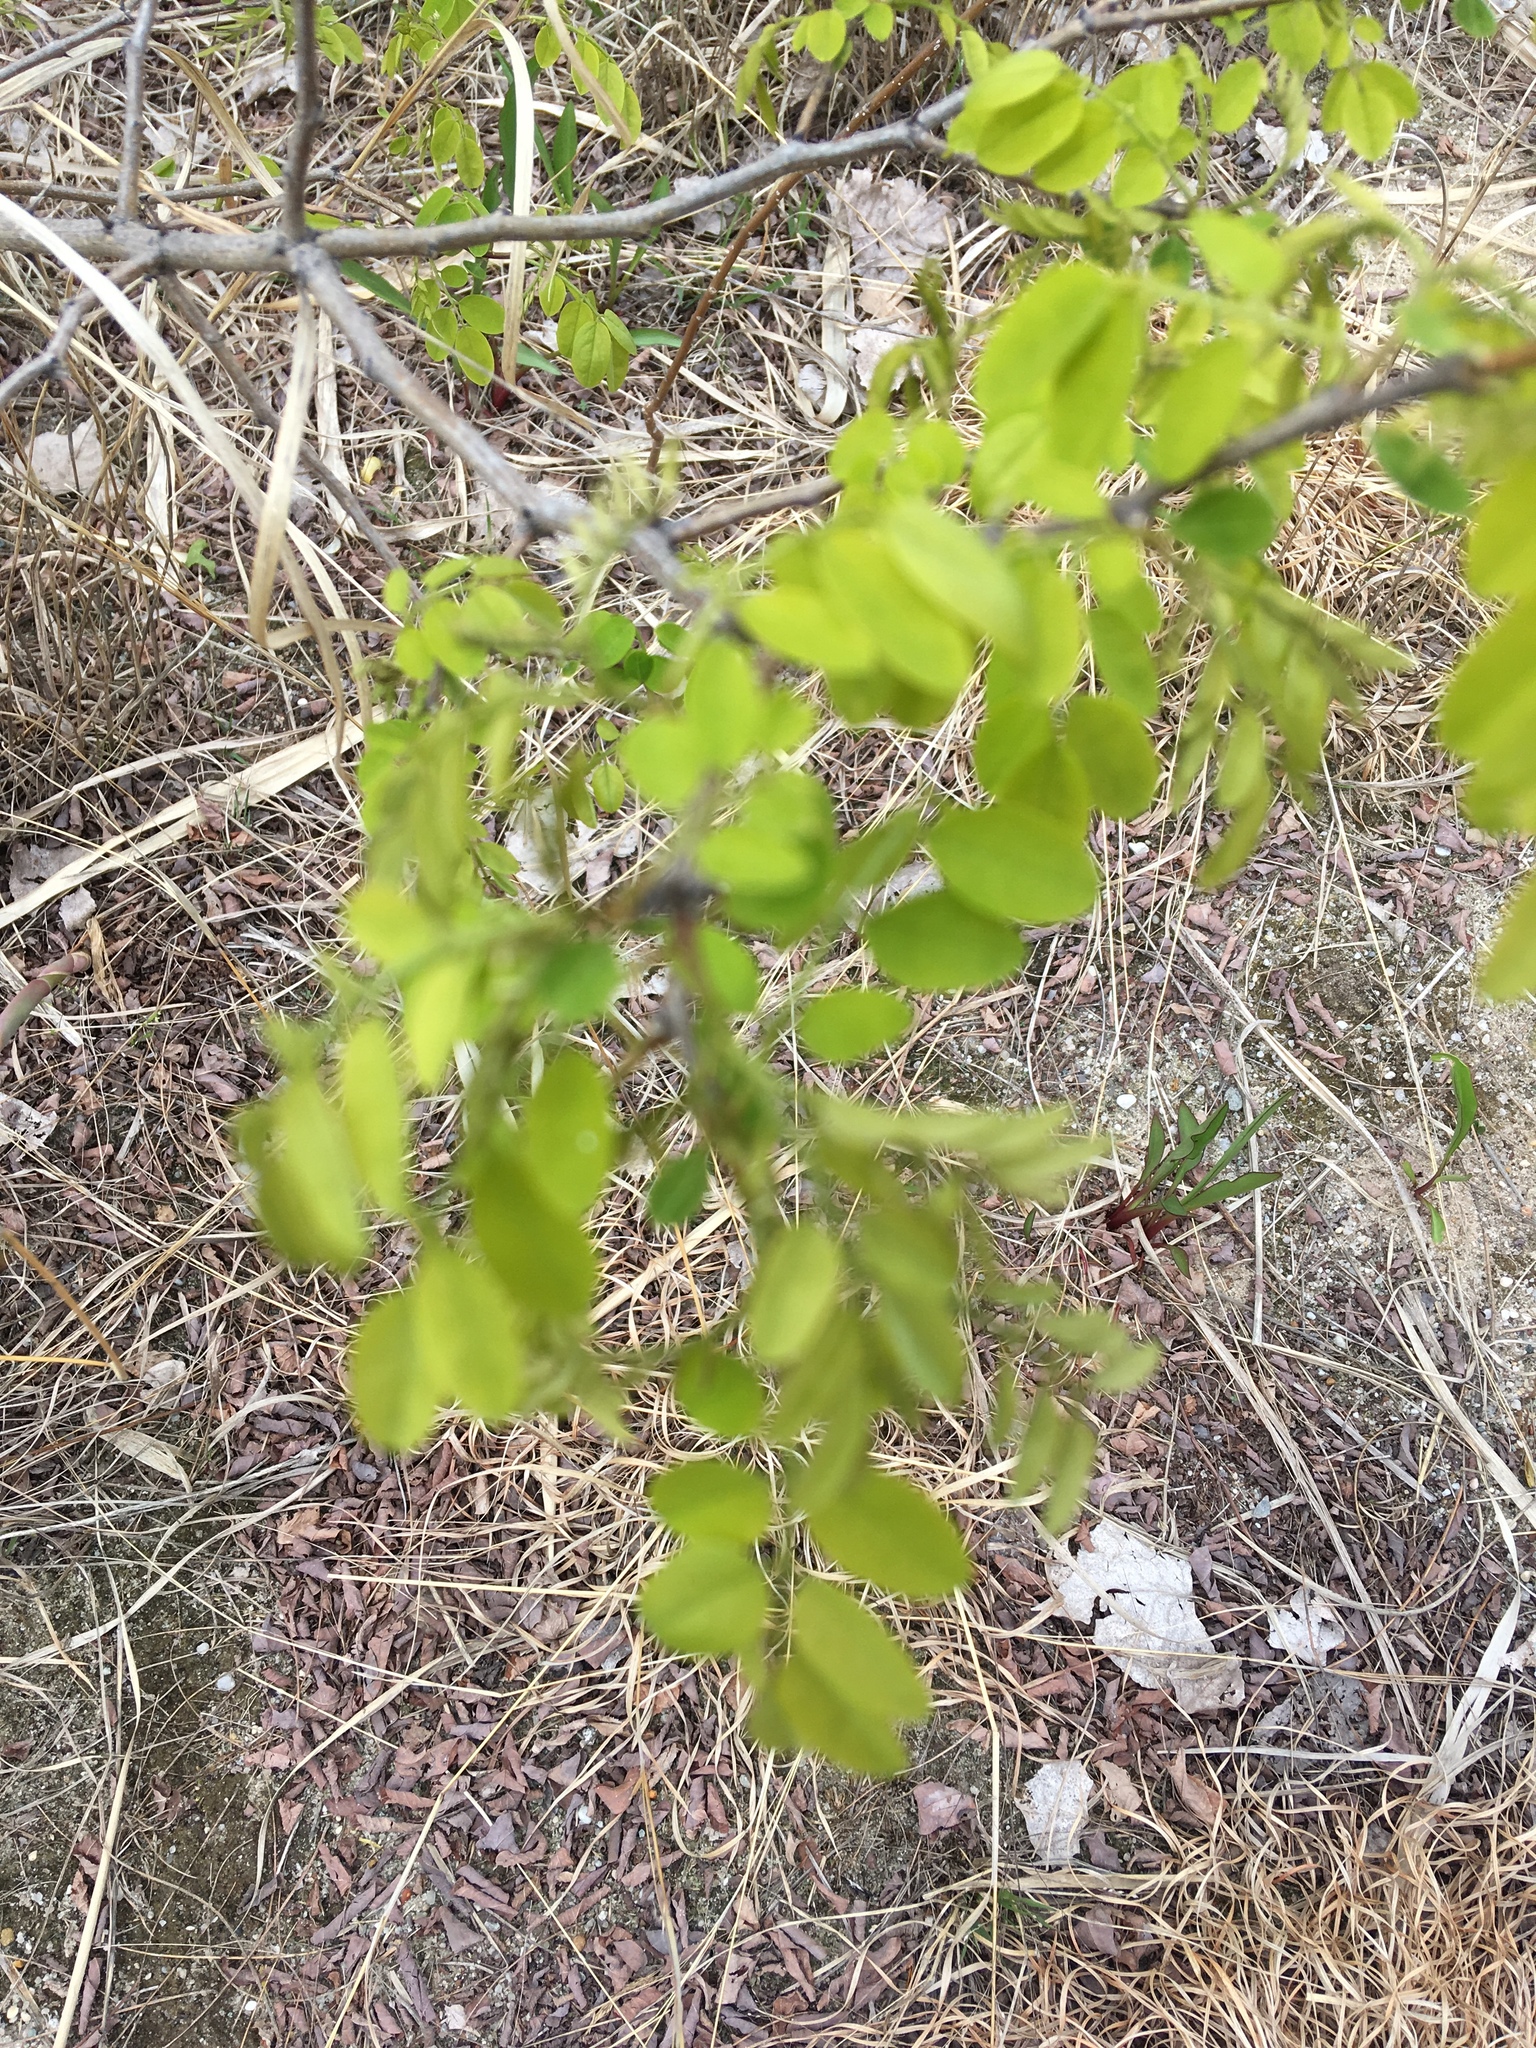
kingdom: Plantae
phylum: Tracheophyta
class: Magnoliopsida
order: Fabales
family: Fabaceae
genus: Robinia
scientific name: Robinia pseudoacacia
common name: Black locust
